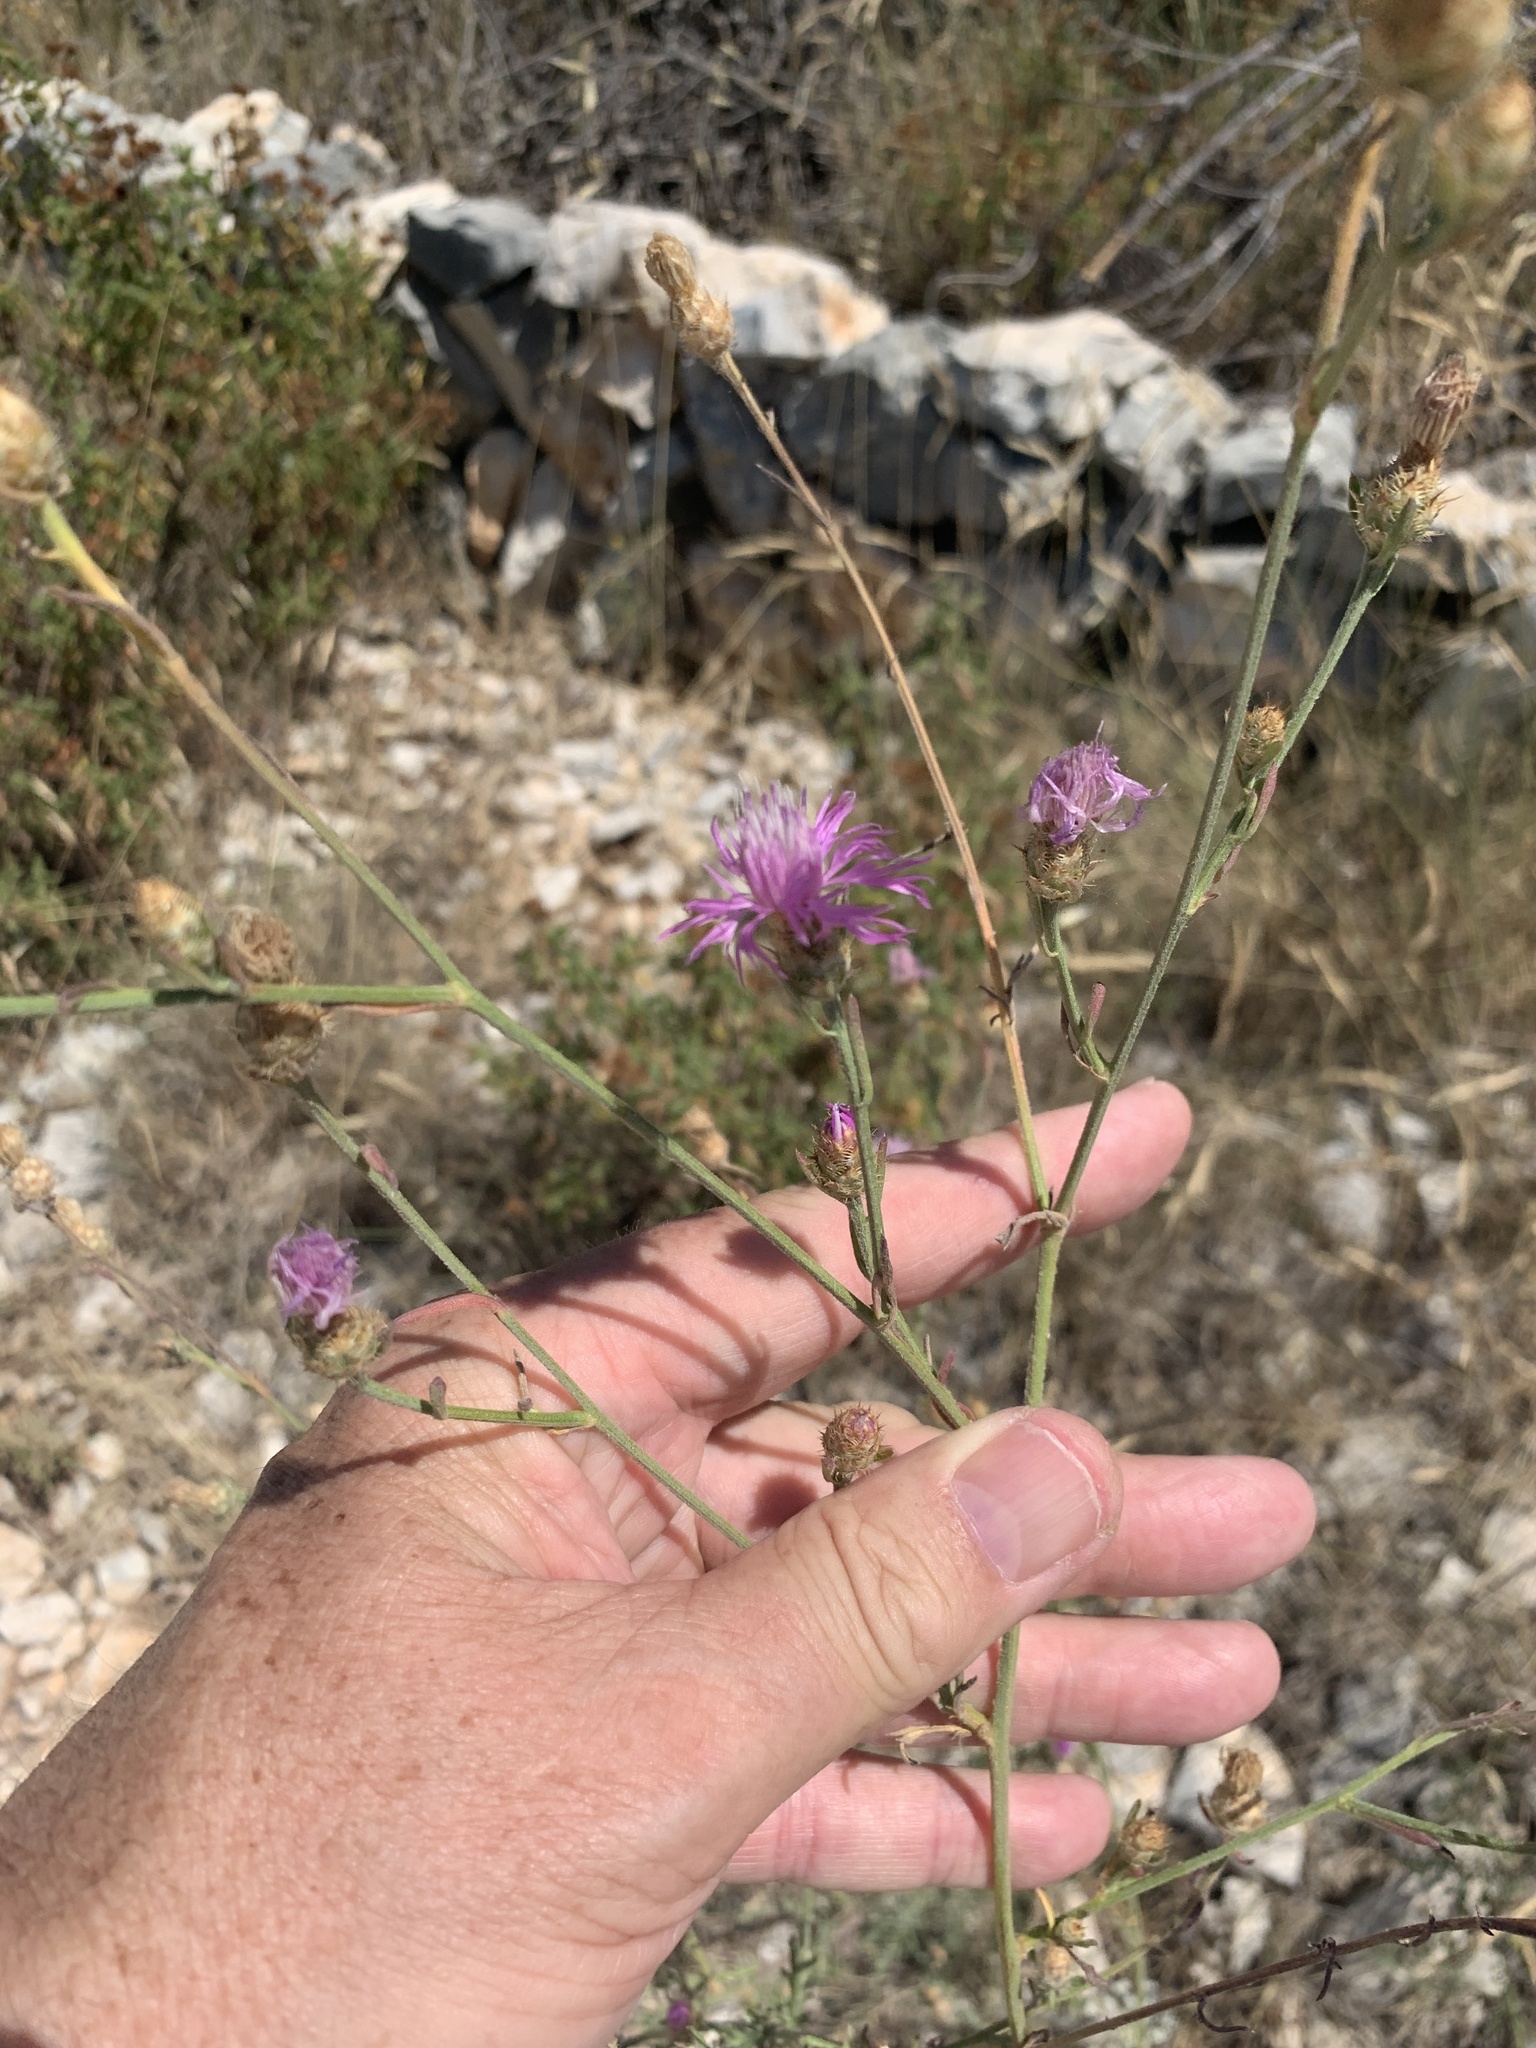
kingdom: Plantae
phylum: Tracheophyta
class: Magnoliopsida
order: Asterales
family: Asteraceae
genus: Centaurea
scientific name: Centaurea spinosociliata
